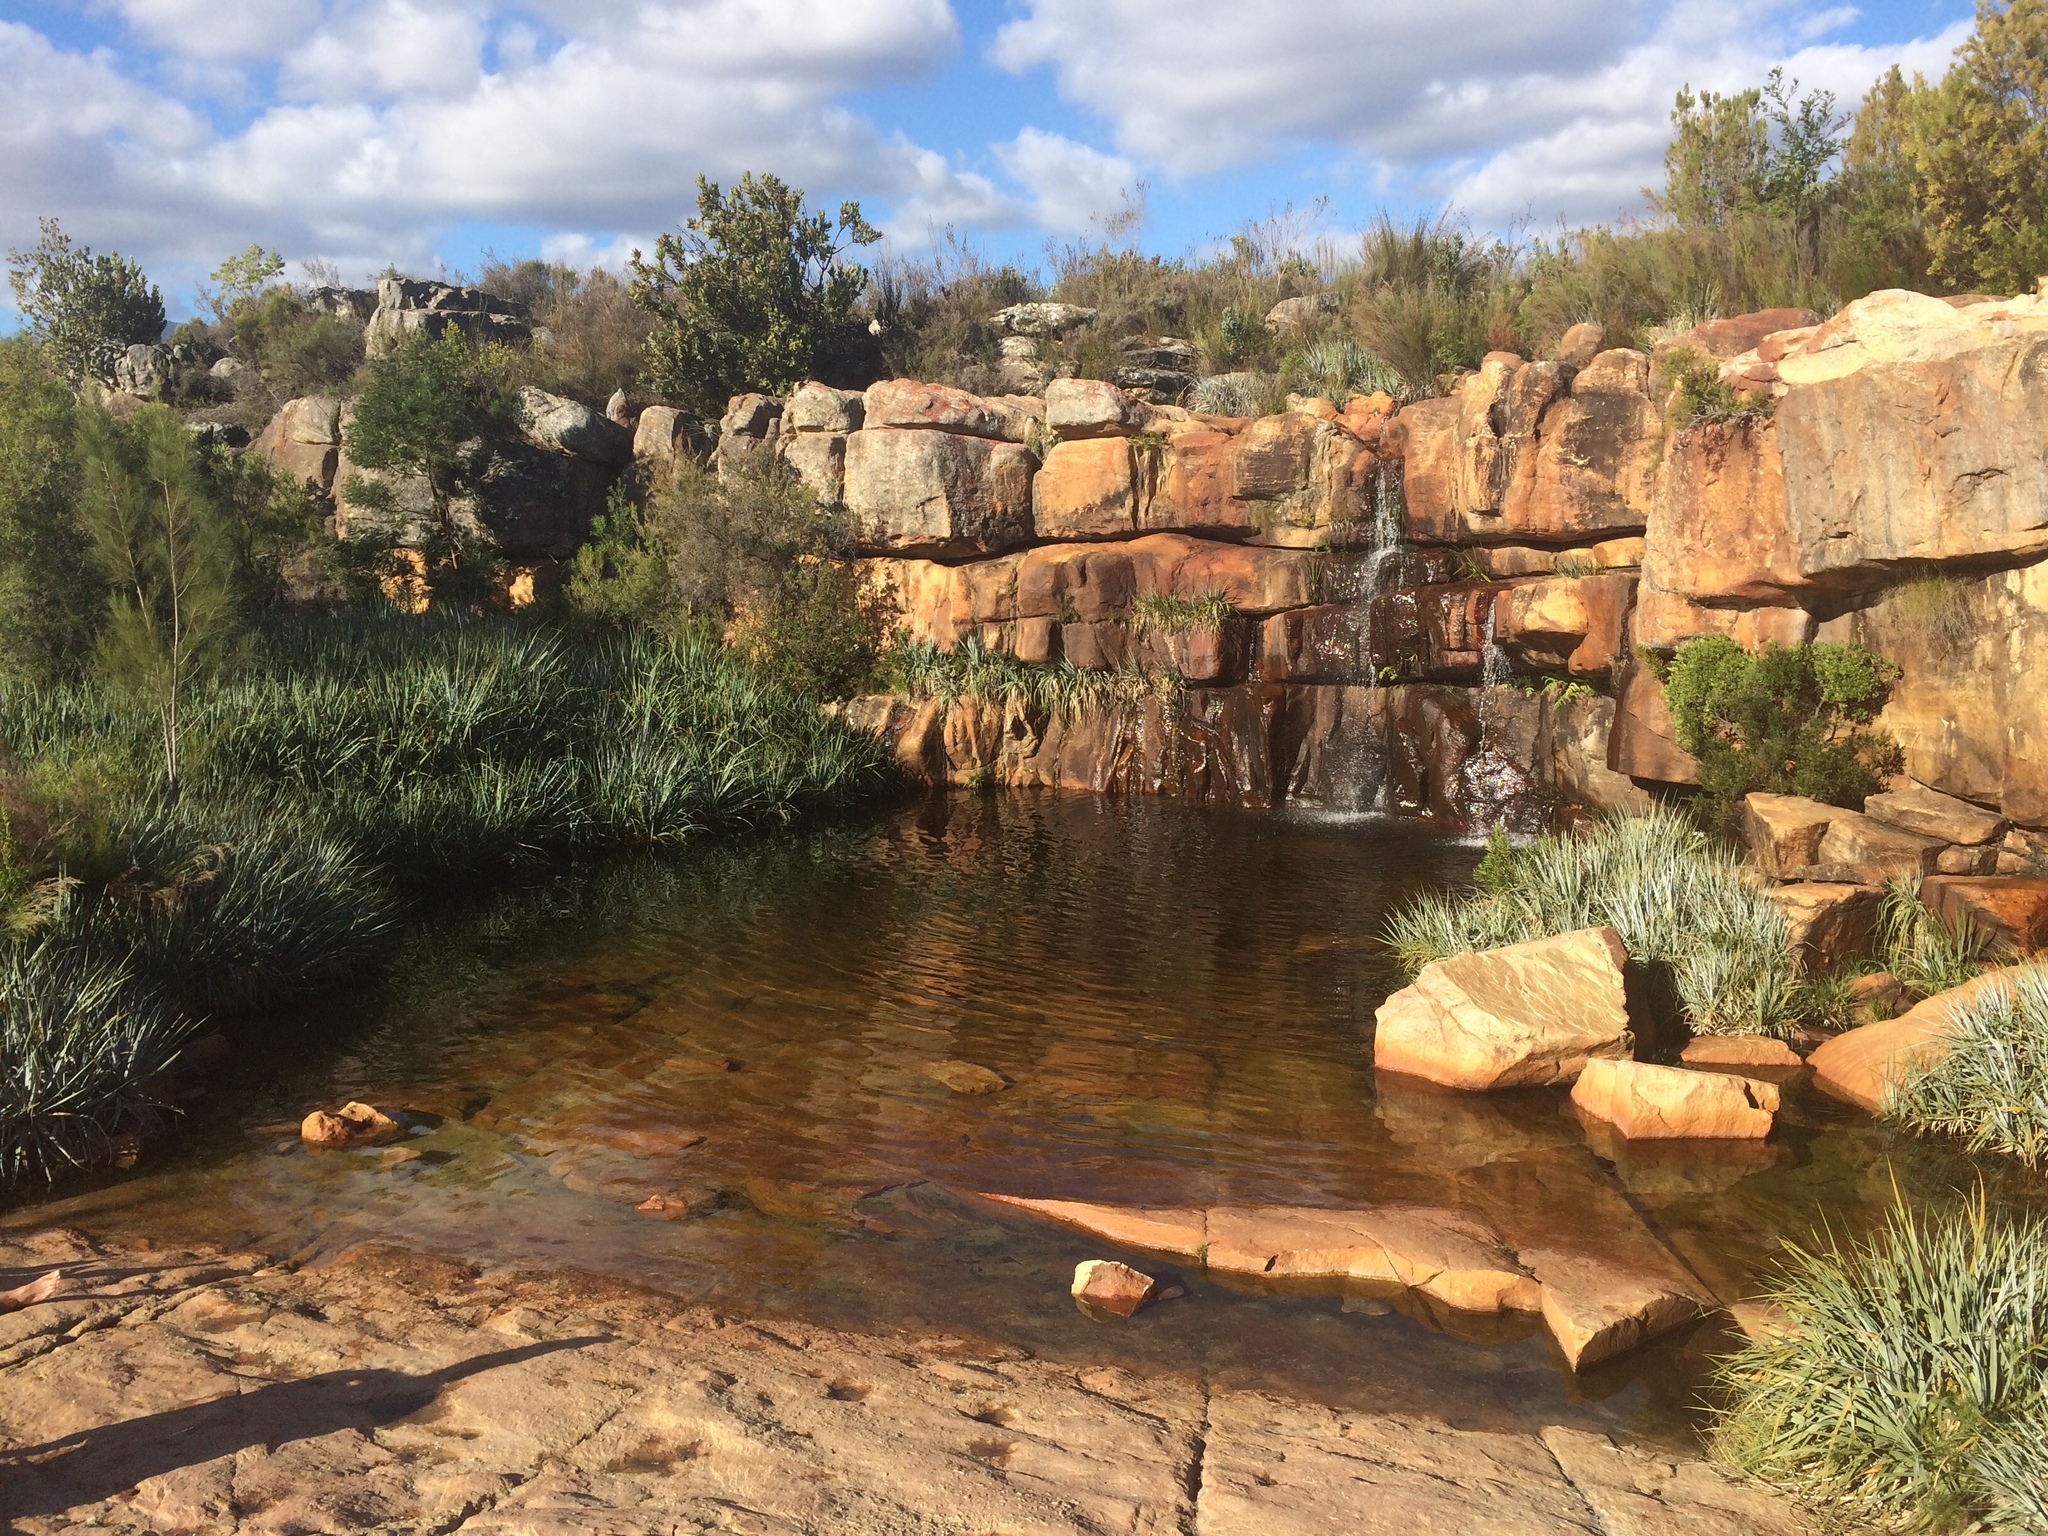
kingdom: Plantae
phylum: Tracheophyta
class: Liliopsida
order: Poales
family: Thurniaceae
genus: Prionium
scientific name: Prionium serratum
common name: Palmiet
